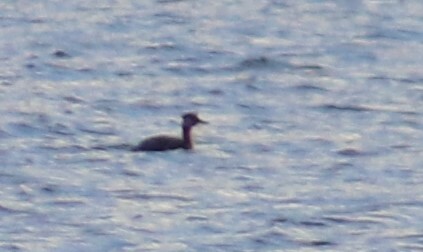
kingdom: Animalia
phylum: Chordata
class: Aves
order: Podicipediformes
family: Podicipedidae
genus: Podiceps
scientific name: Podiceps grisegena
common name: Red-necked grebe
